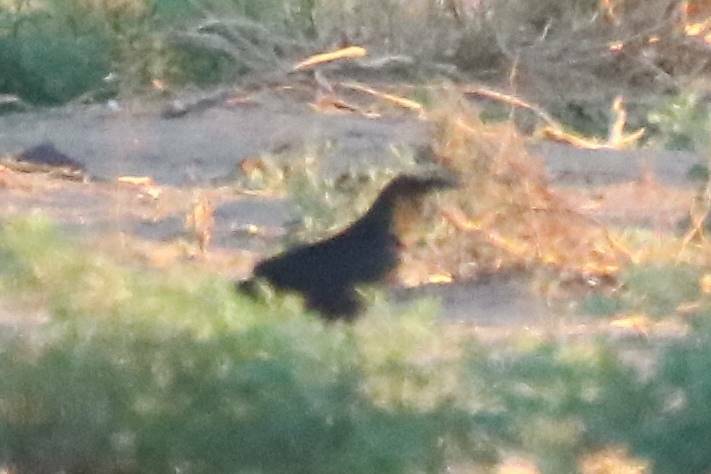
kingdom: Animalia
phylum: Chordata
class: Aves
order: Passeriformes
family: Corvidae
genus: Corvus
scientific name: Corvus ruficollis
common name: Brown-necked raven
